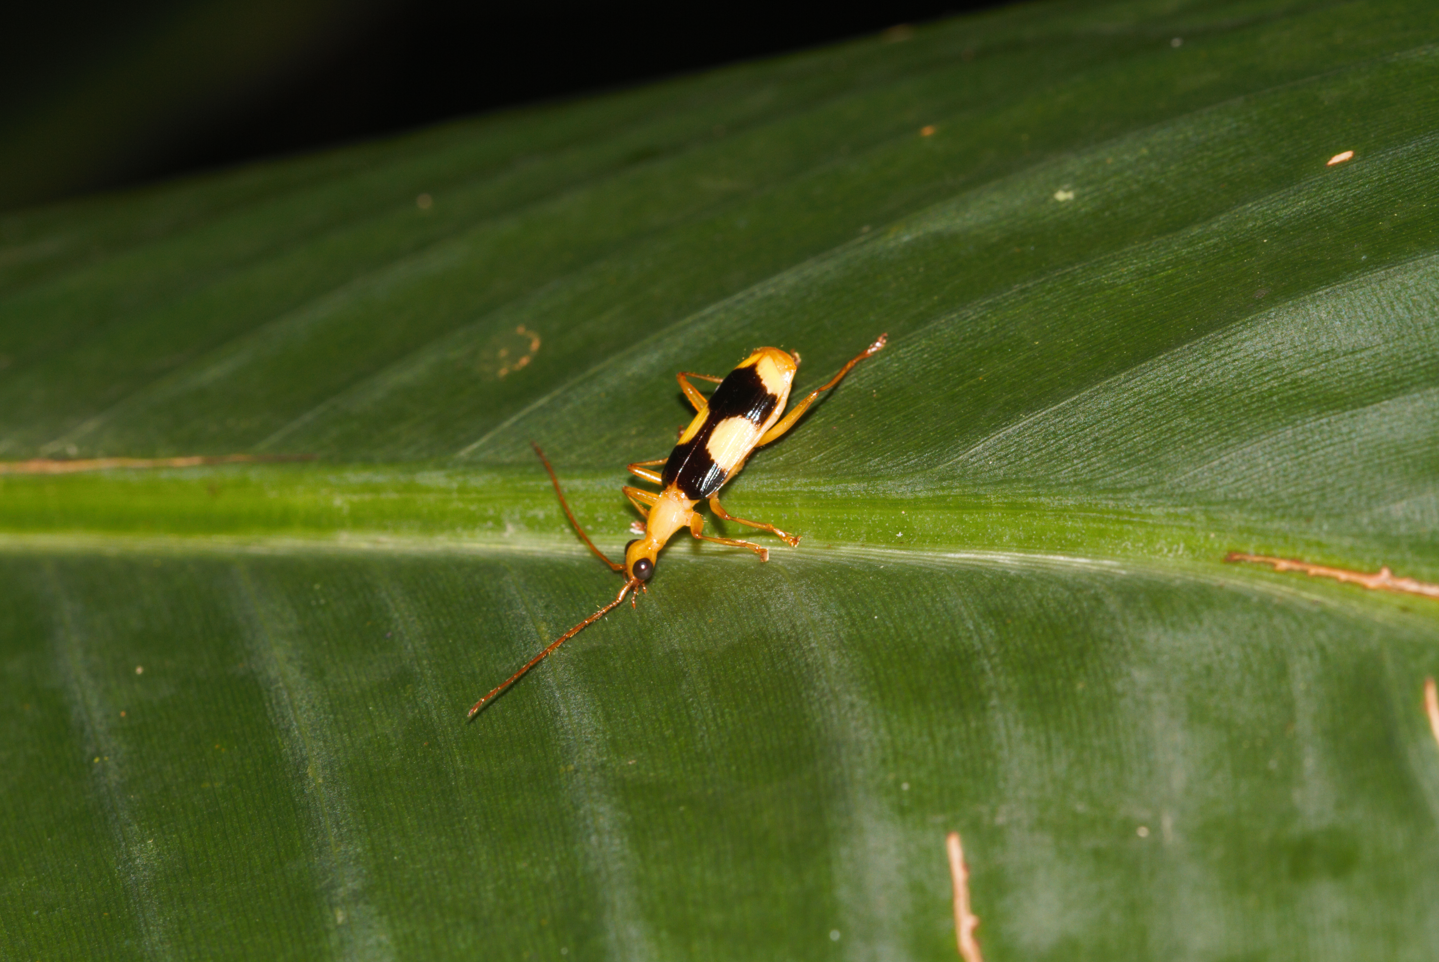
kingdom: Animalia
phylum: Arthropoda
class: Insecta
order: Coleoptera
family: Carabidae
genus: Calophaena
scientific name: Calophaena maculata
